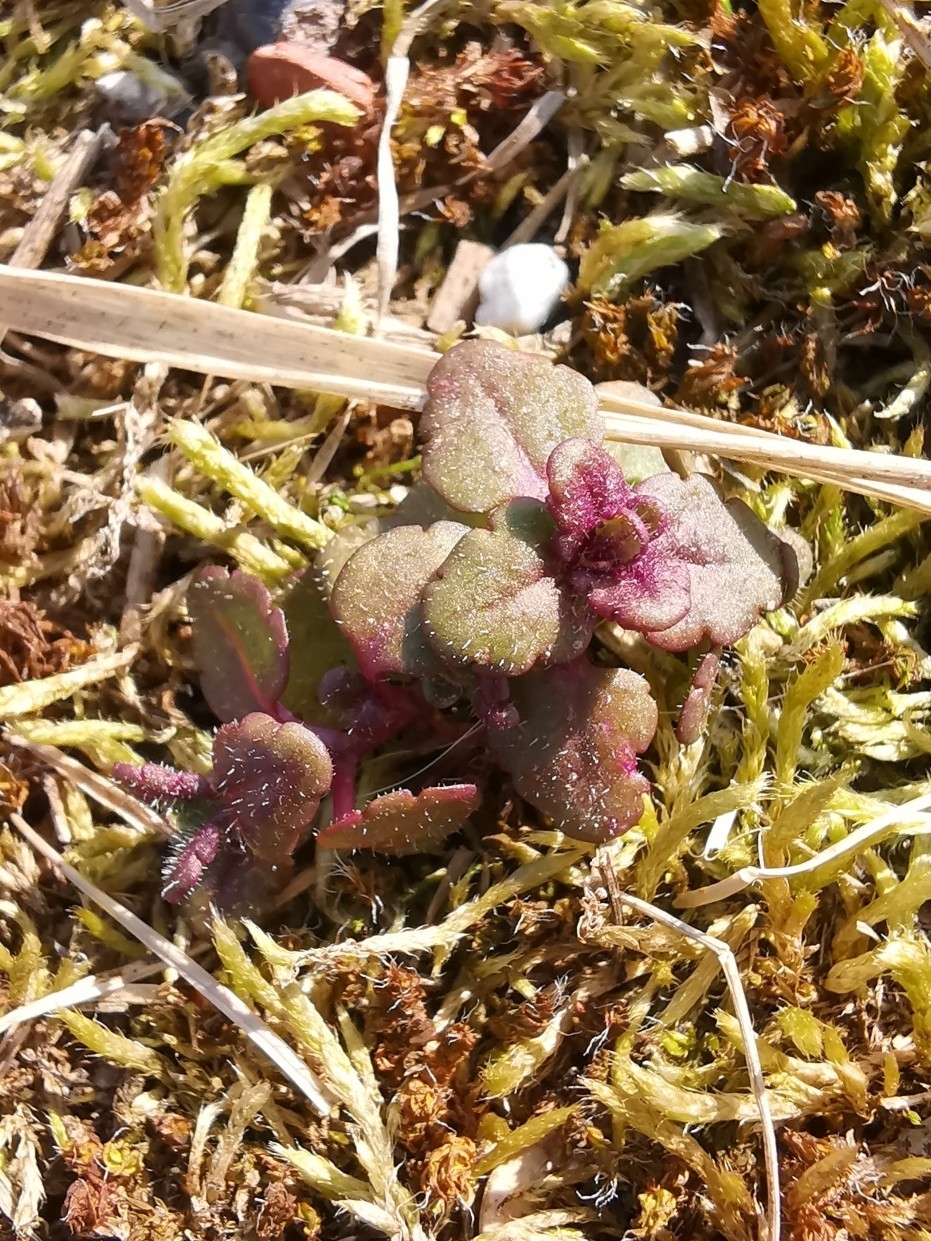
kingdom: Plantae
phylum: Tracheophyta
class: Magnoliopsida
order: Lamiales
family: Plantaginaceae
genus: Veronica
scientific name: Veronica arvensis
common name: Corn speedwell
